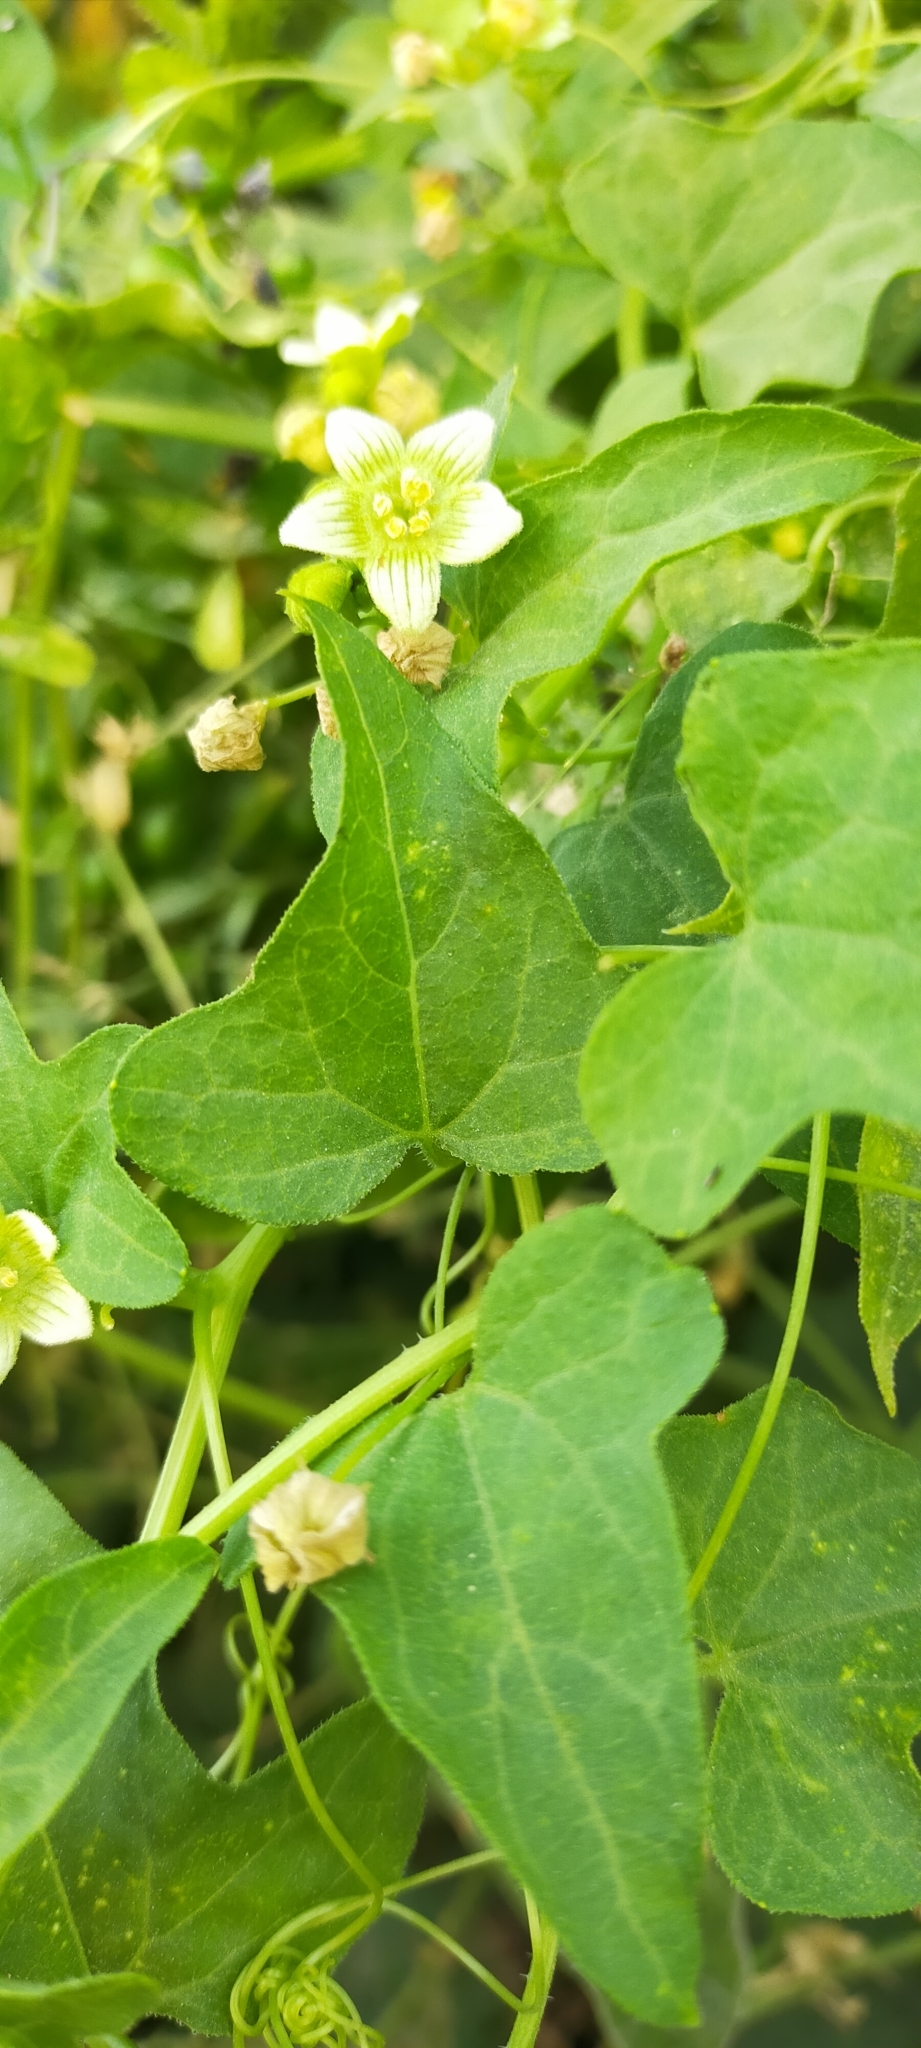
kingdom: Plantae
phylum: Tracheophyta
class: Magnoliopsida
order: Cucurbitales
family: Cucurbitaceae
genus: Bryonia
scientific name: Bryonia cretica
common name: Cretan bryony
